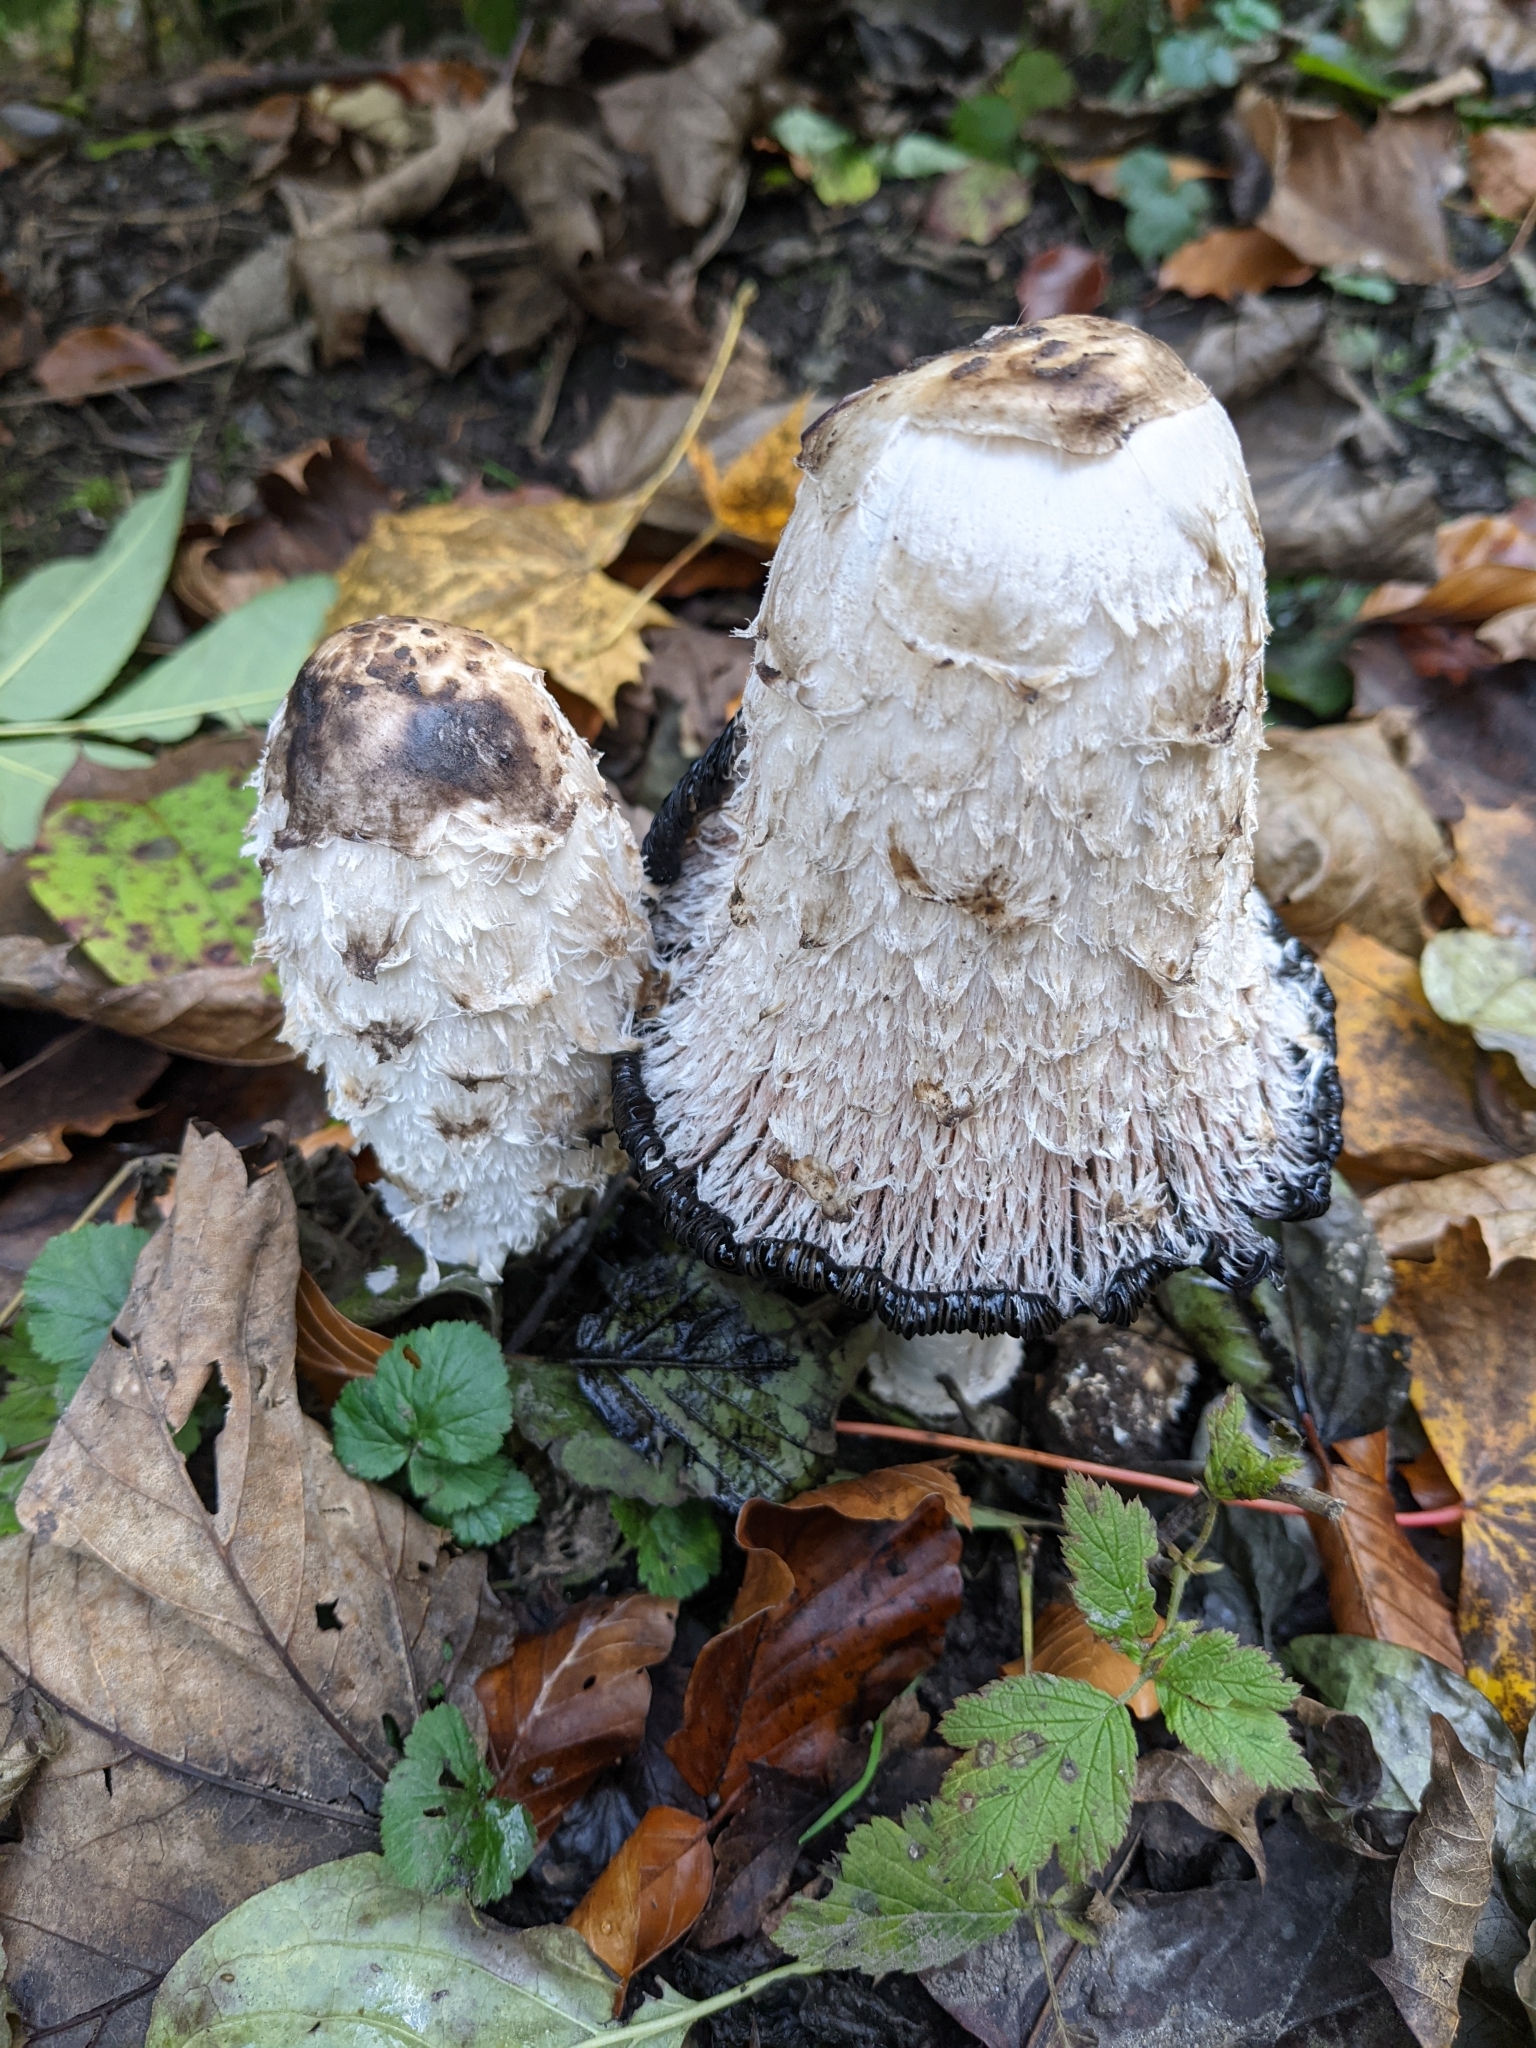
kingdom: Fungi
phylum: Basidiomycota
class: Agaricomycetes
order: Agaricales
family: Agaricaceae
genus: Coprinus
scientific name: Coprinus comatus
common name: Lawyer's wig
